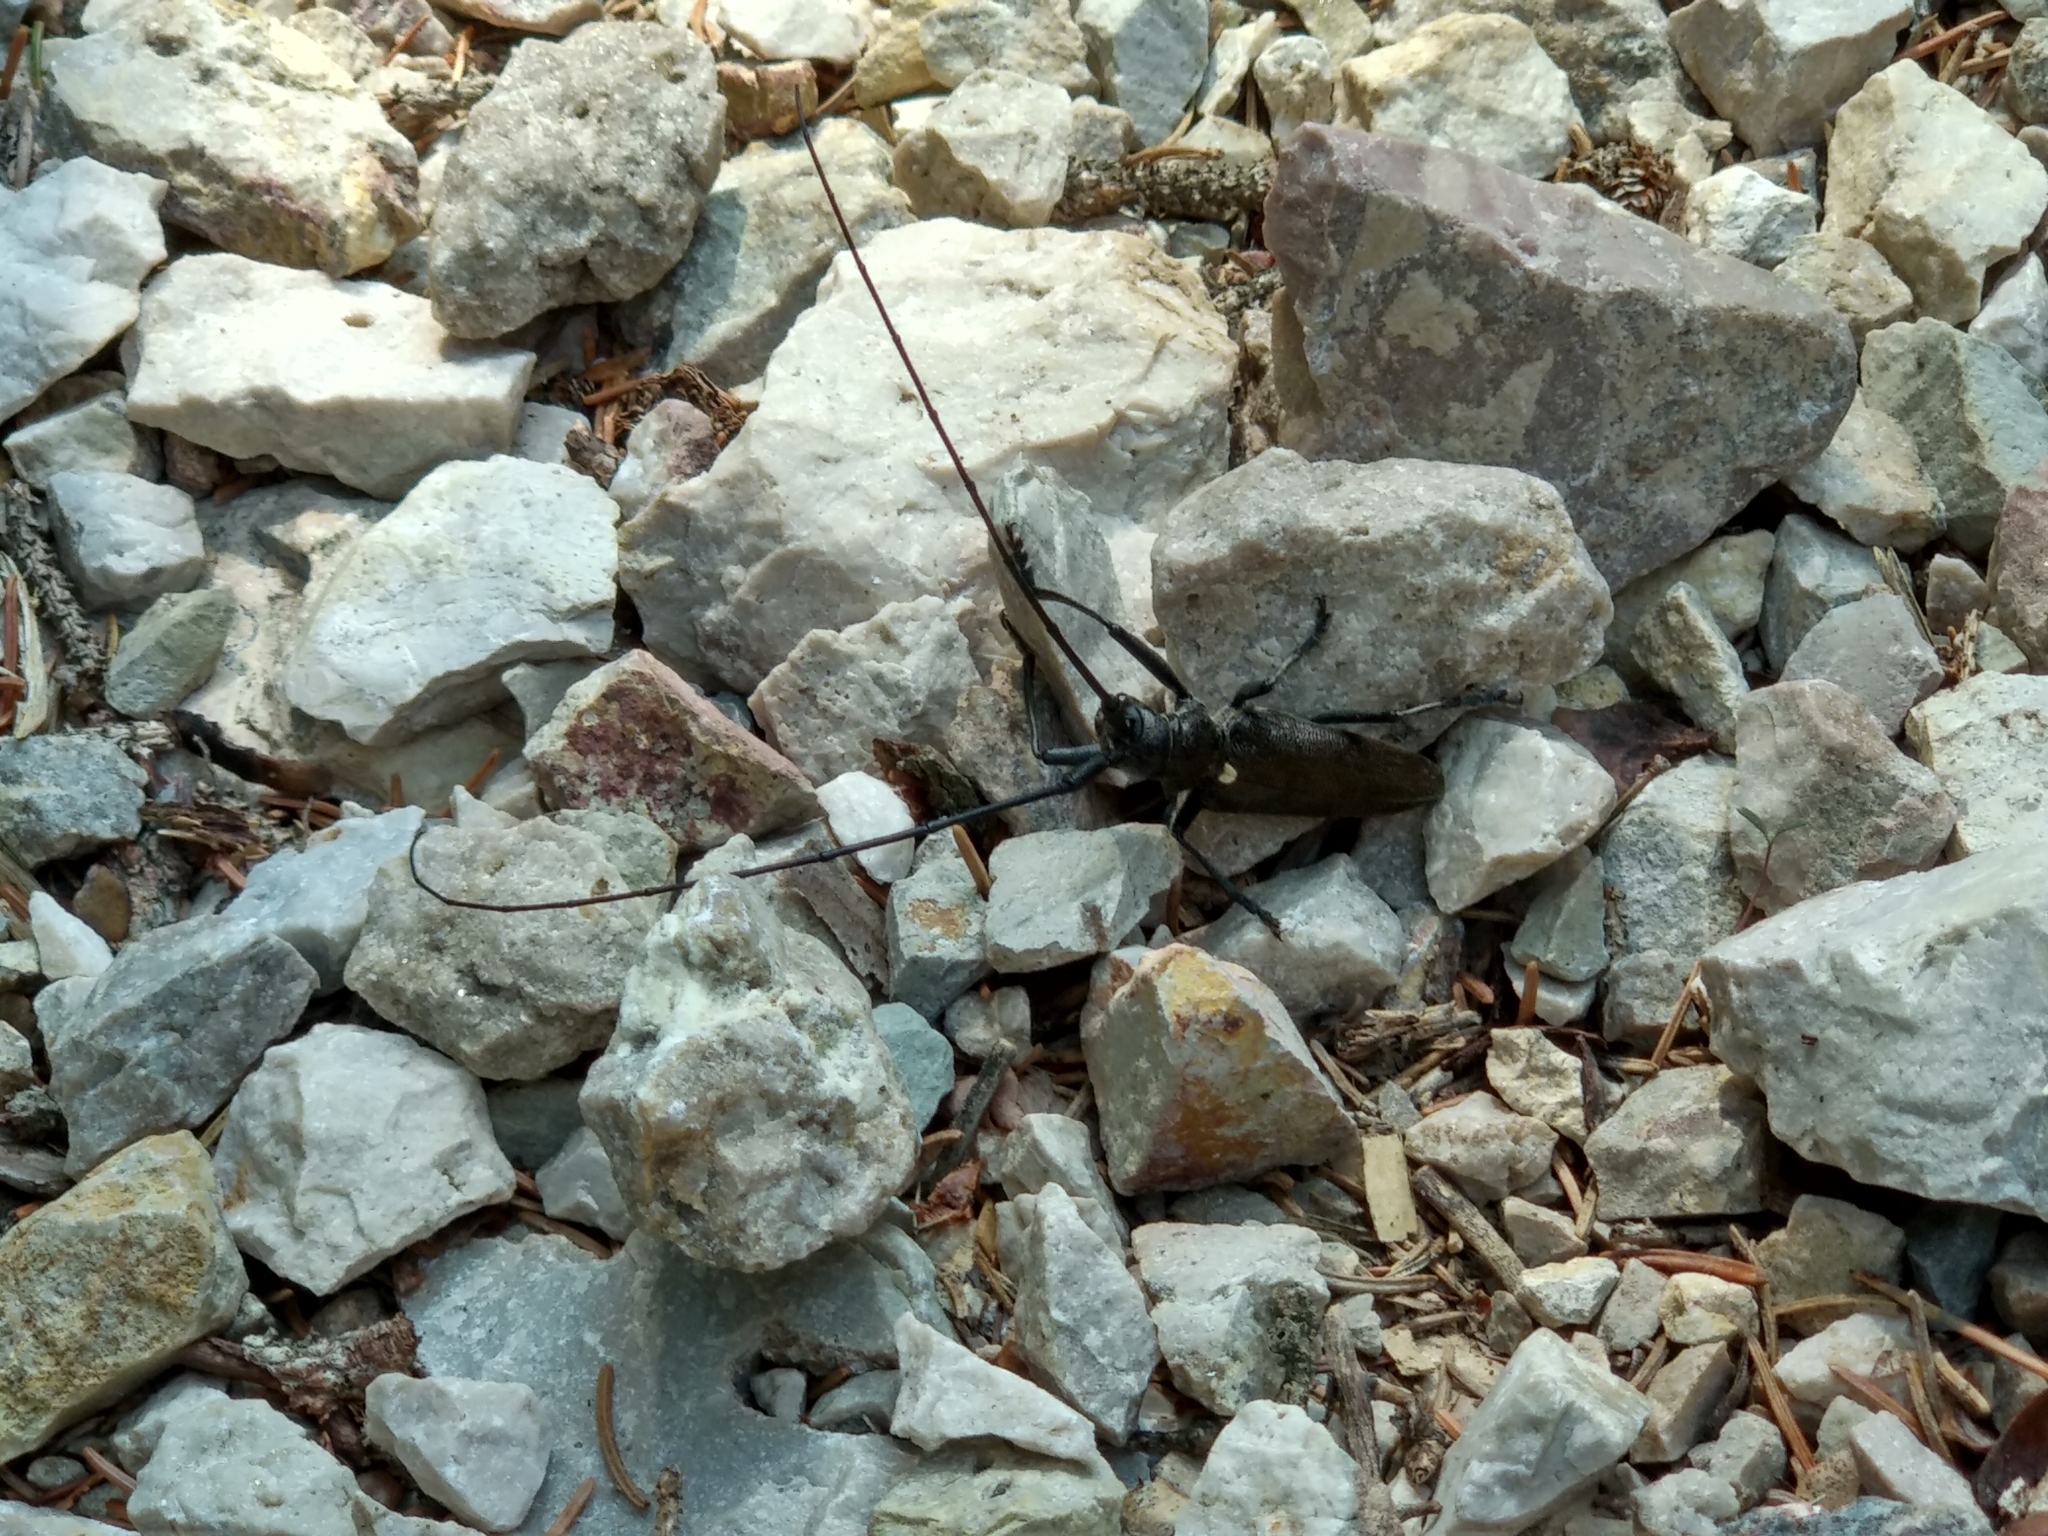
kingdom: Animalia
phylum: Arthropoda
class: Insecta
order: Coleoptera
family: Cerambycidae
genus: Monochamus
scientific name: Monochamus sartor
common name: Pine sawyer
